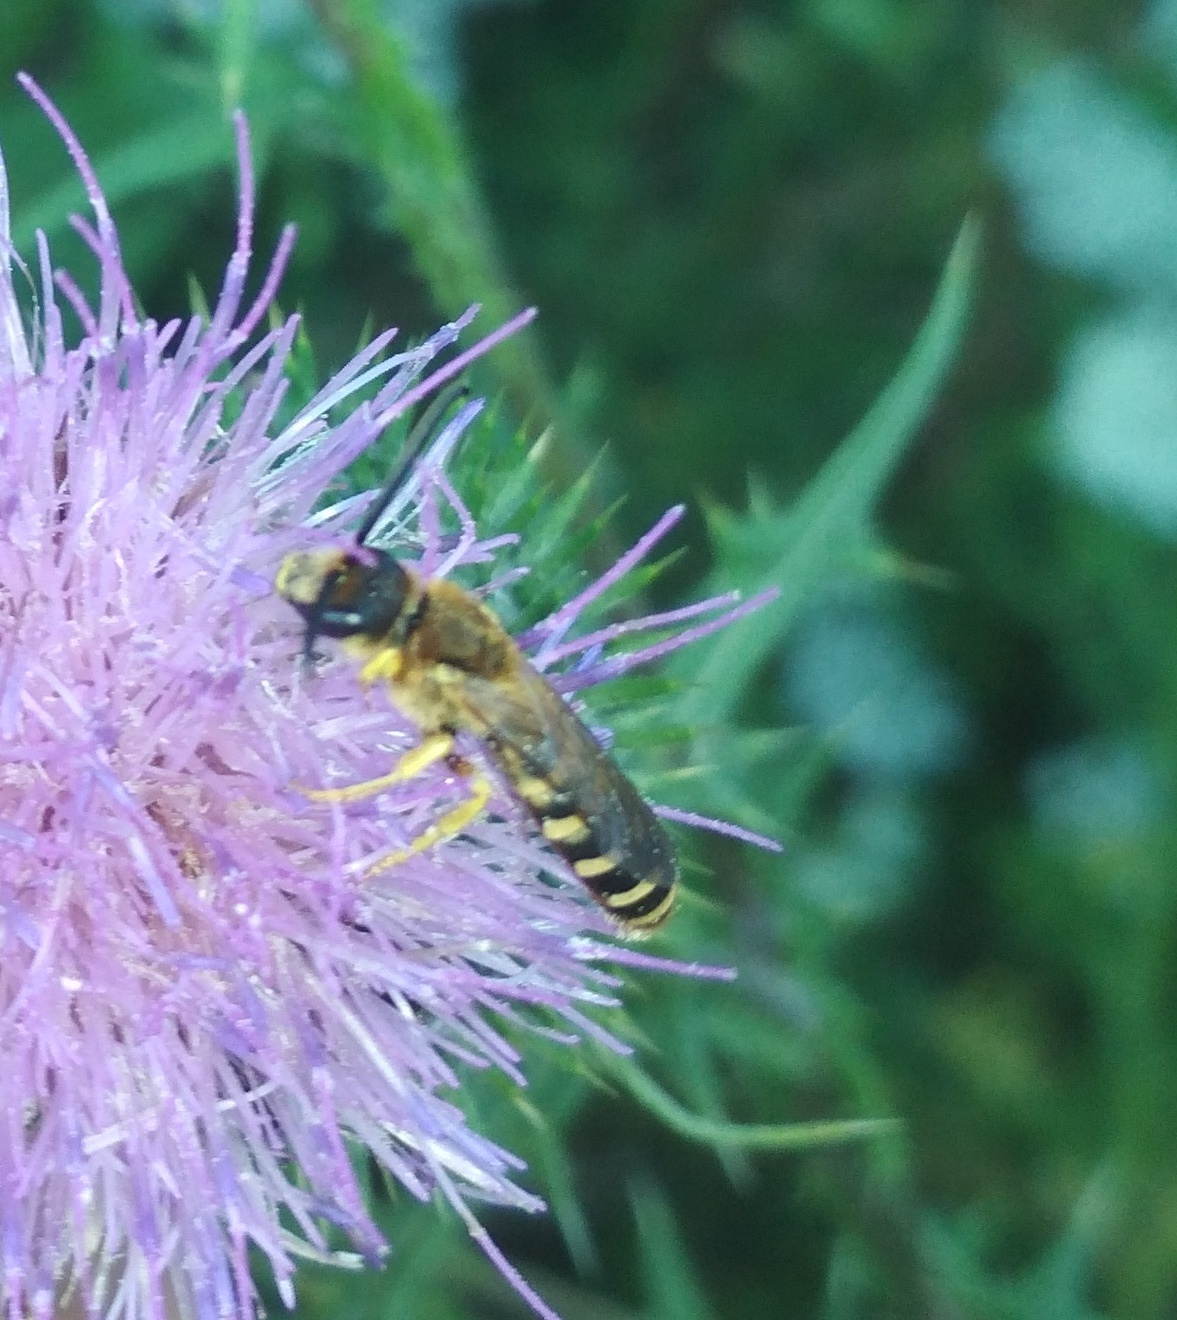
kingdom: Animalia
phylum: Arthropoda
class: Insecta
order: Hymenoptera
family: Halictidae
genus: Halictus
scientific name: Halictus scabiosae
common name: Great banded furrow bee
